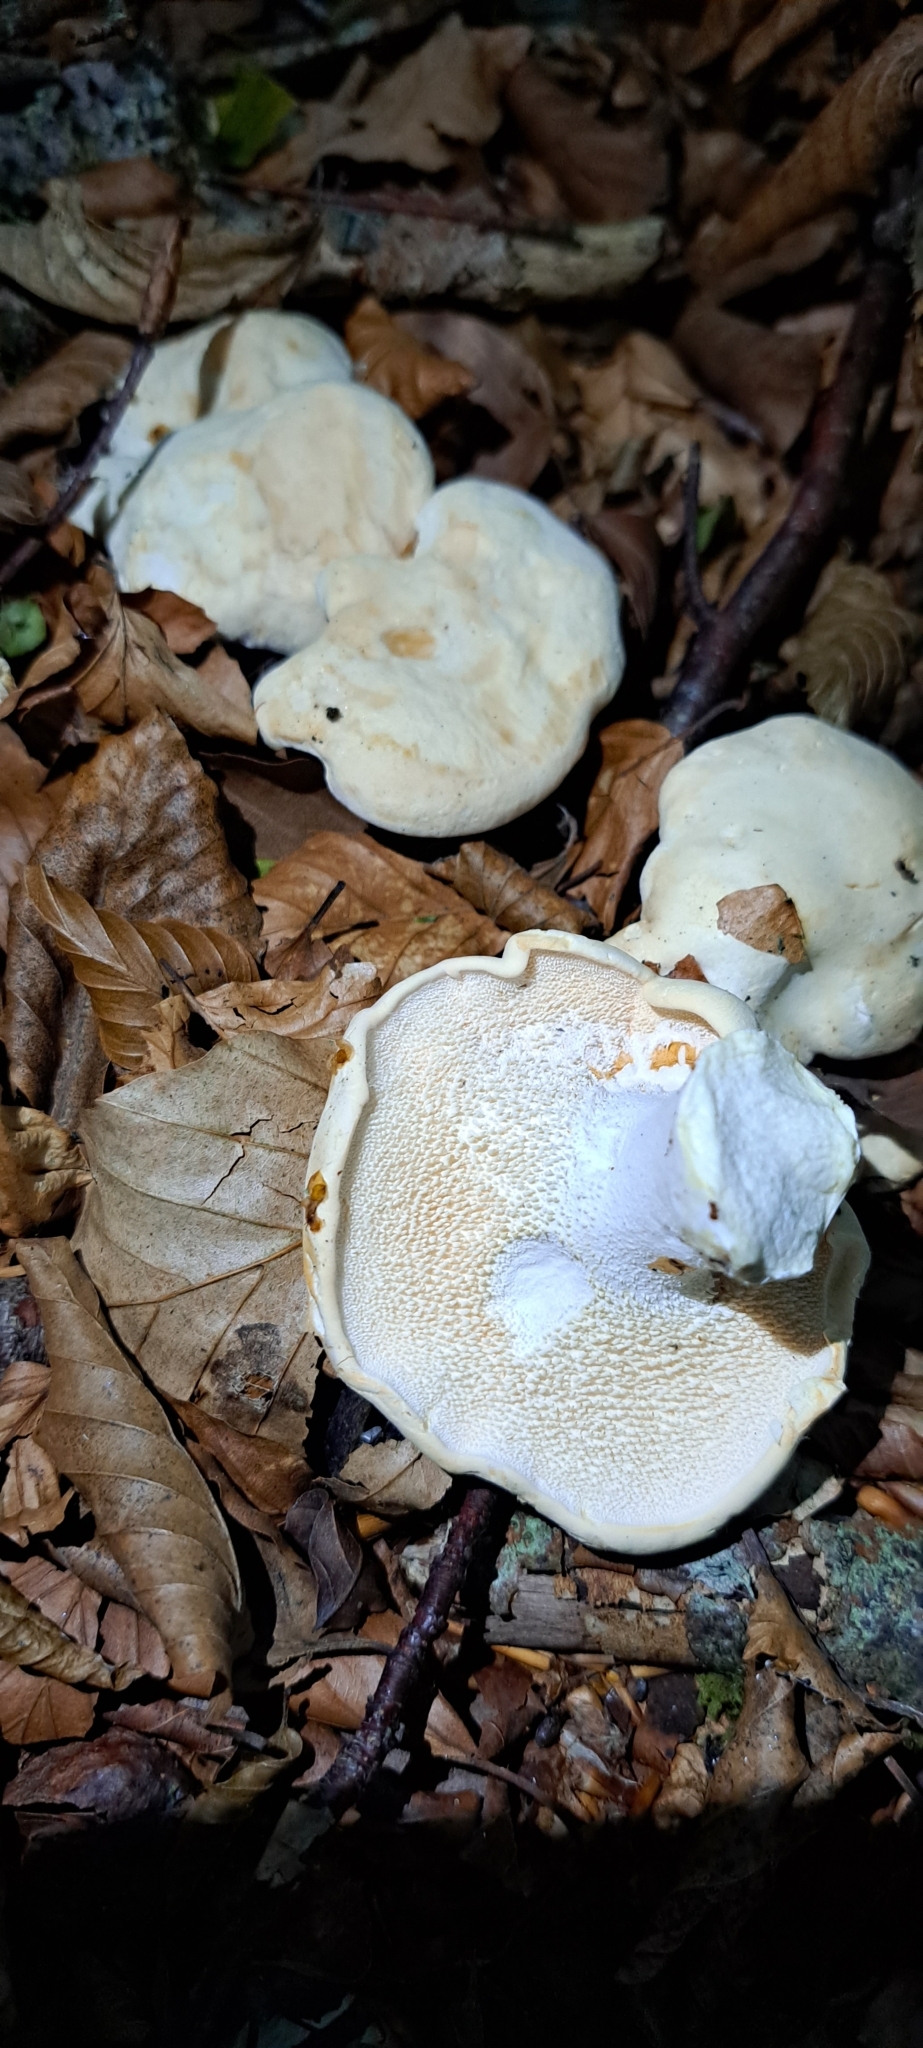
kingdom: Fungi
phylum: Basidiomycota
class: Agaricomycetes
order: Cantharellales
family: Hydnaceae
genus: Hydnum
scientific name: Hydnum repandum
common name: Wood hedgehog
